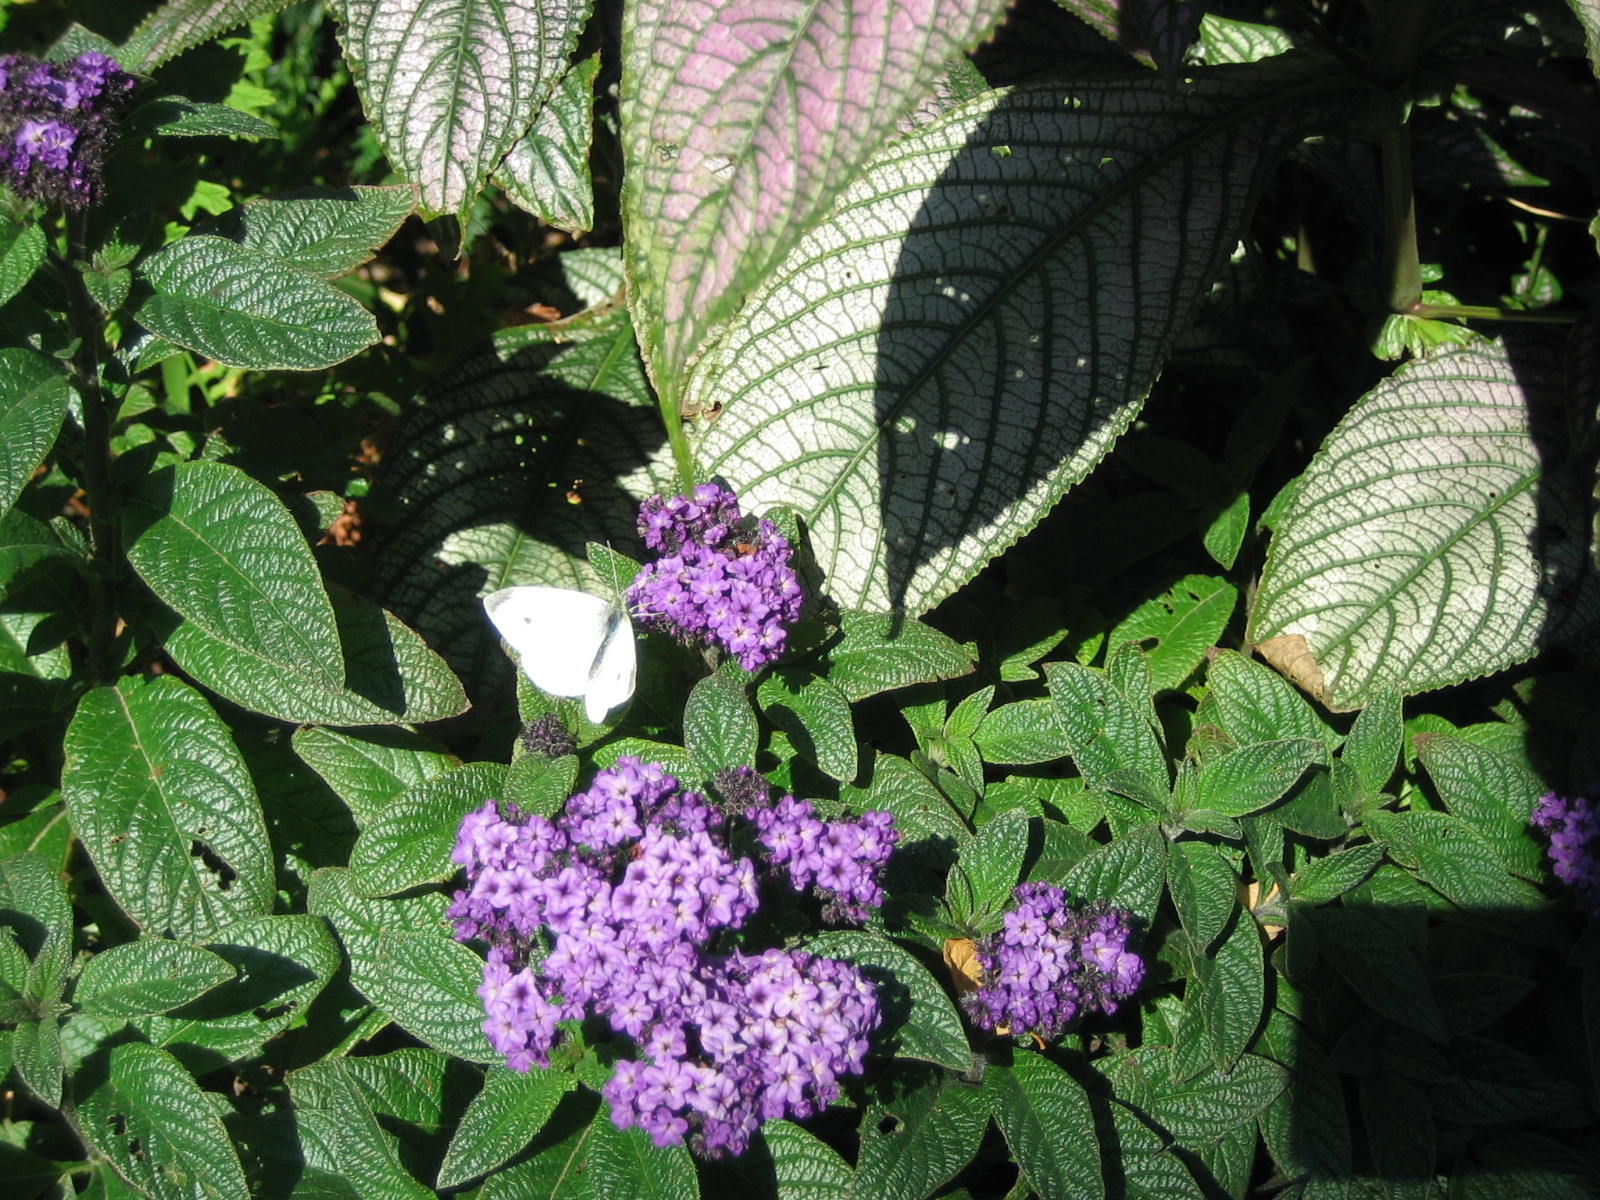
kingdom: Animalia
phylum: Arthropoda
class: Insecta
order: Lepidoptera
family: Pieridae
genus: Pieris
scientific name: Pieris rapae
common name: Small white
